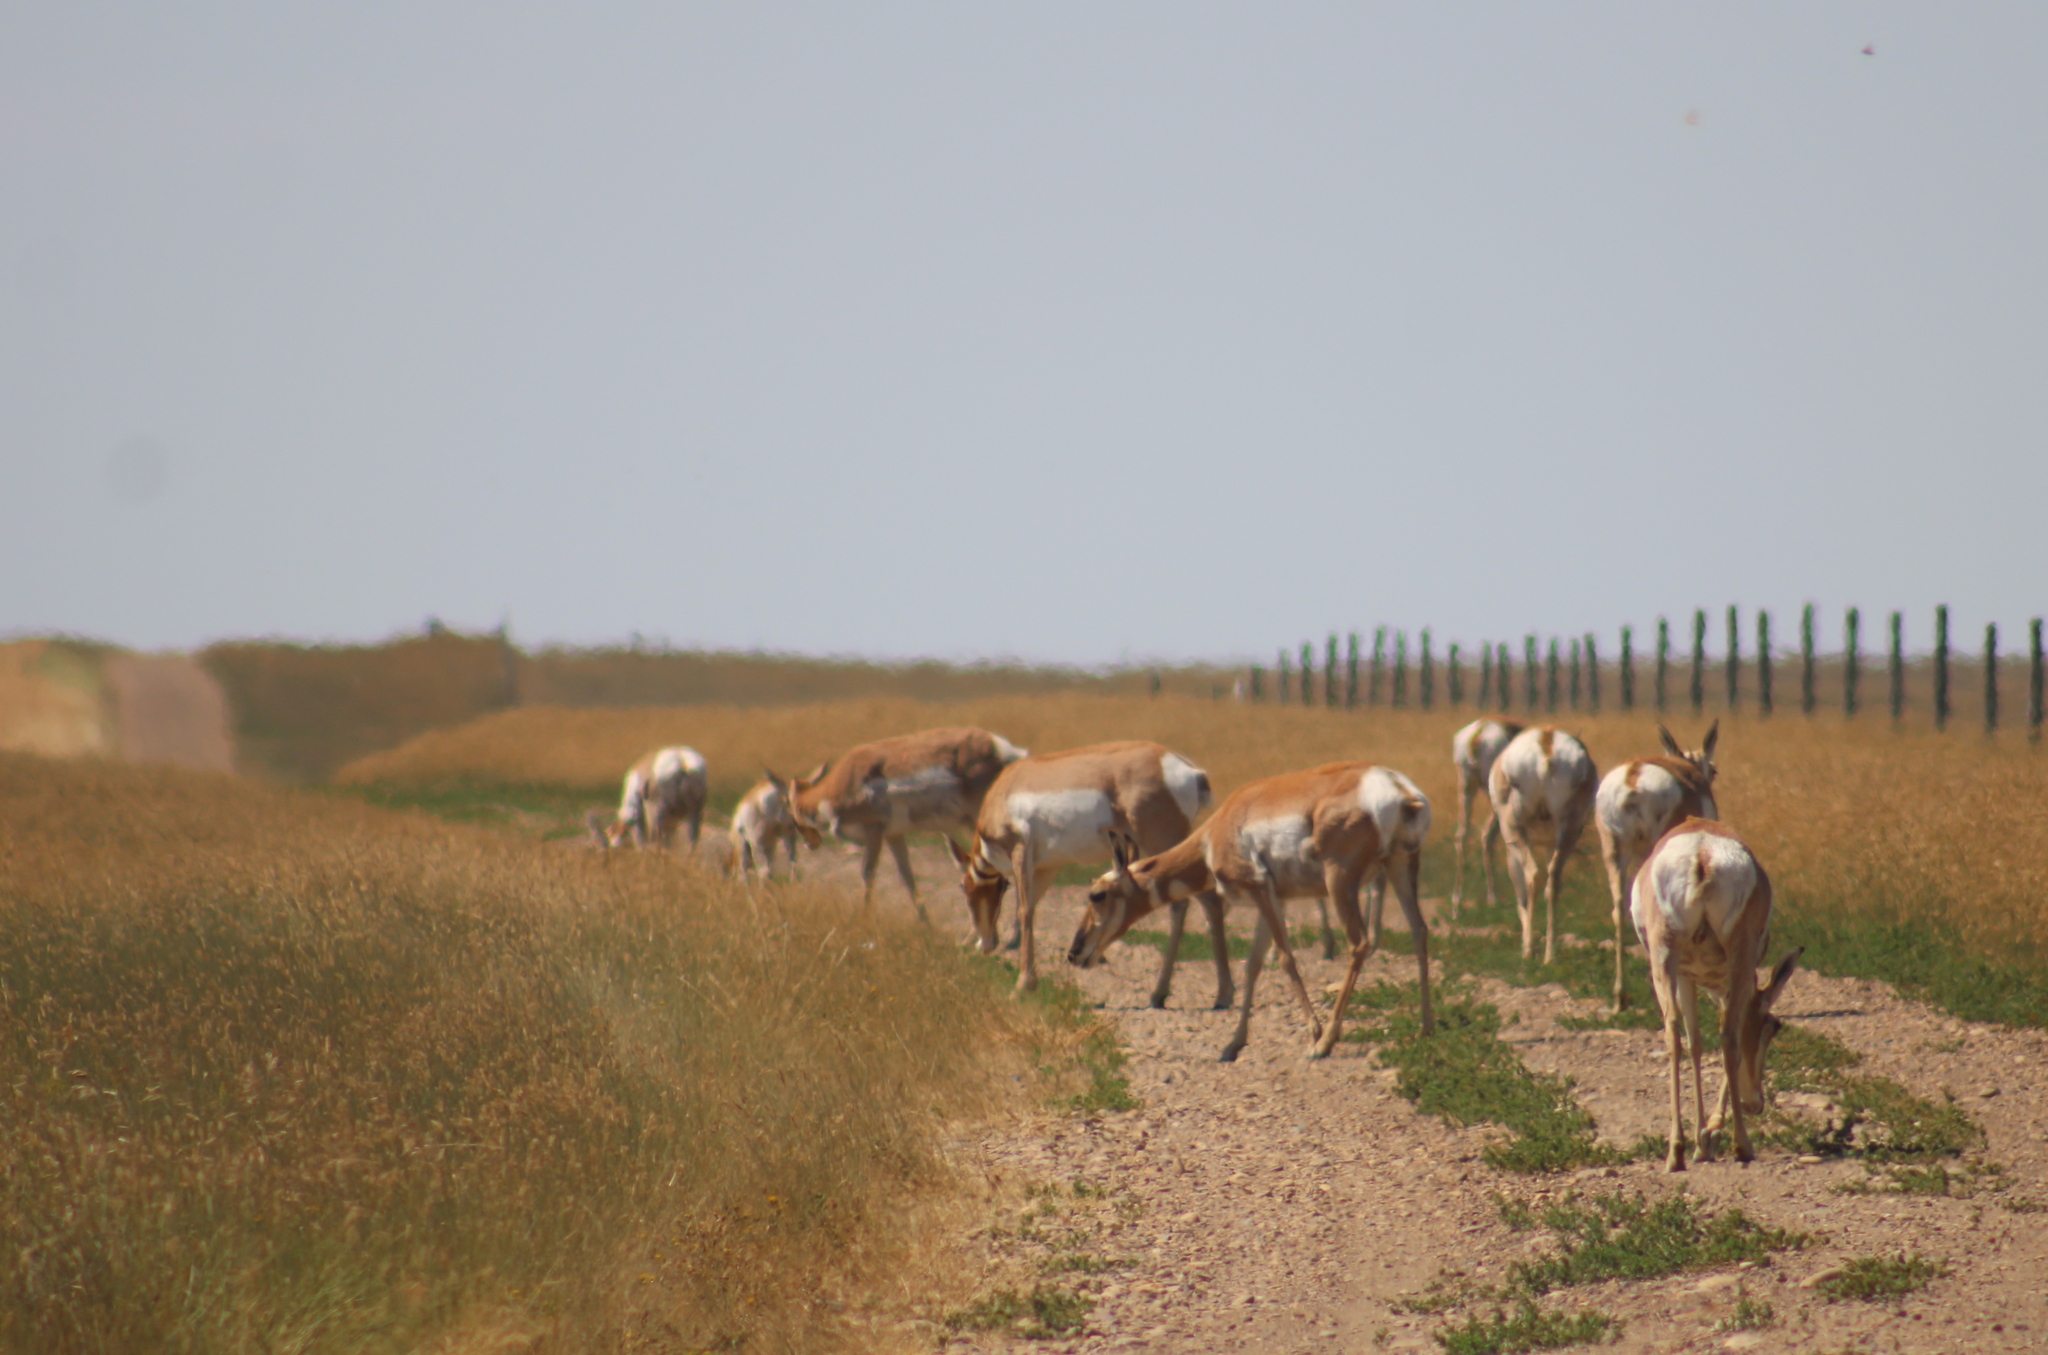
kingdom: Animalia
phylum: Chordata
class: Mammalia
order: Artiodactyla
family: Antilocapridae
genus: Antilocapra
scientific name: Antilocapra americana
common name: Pronghorn
